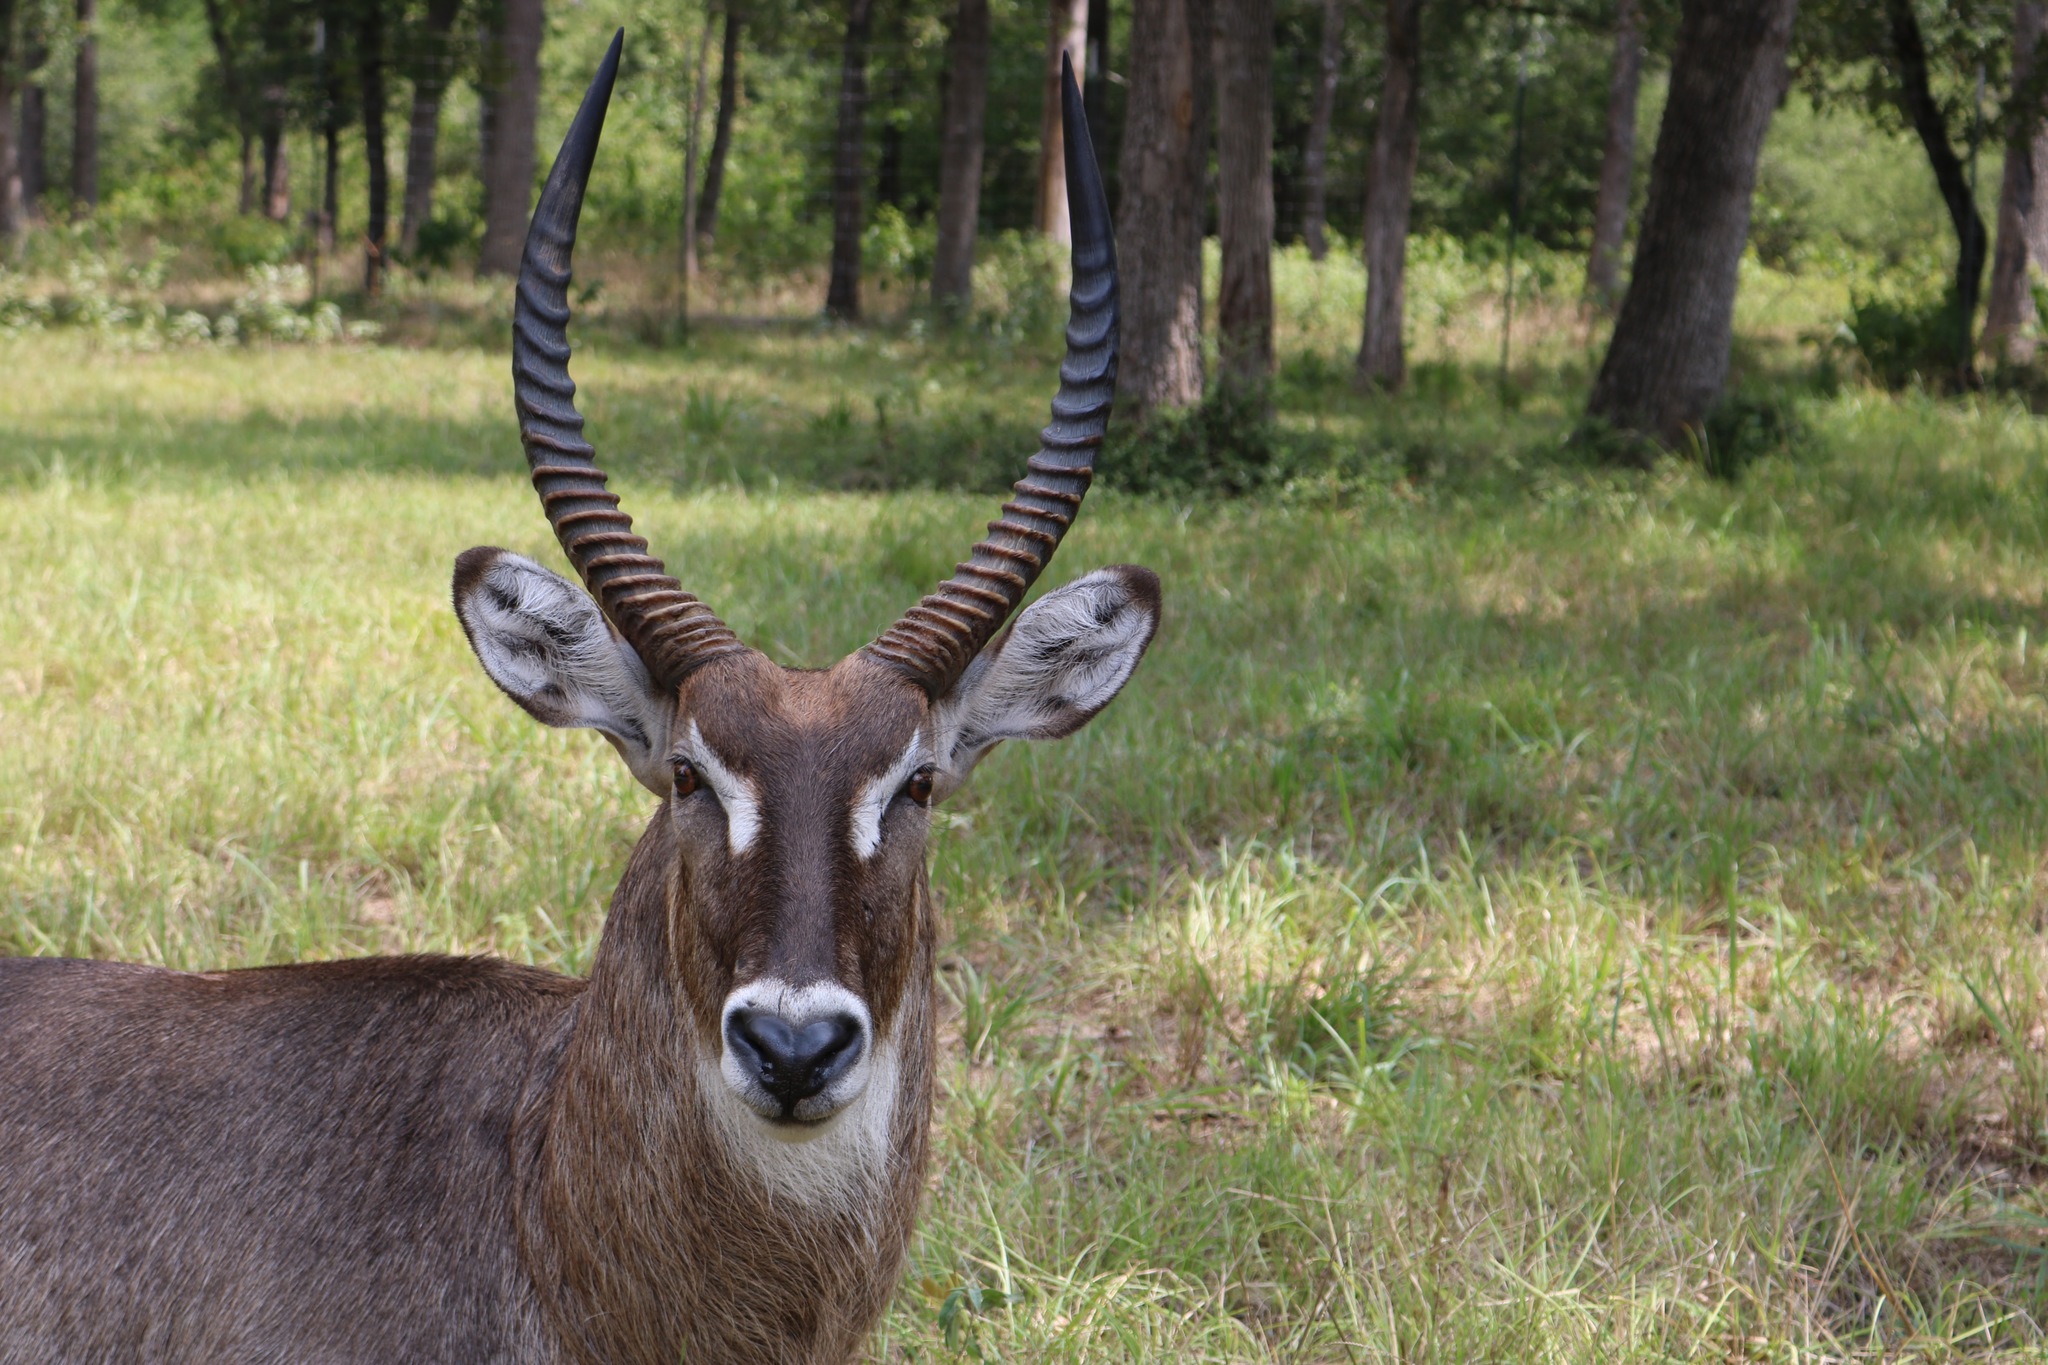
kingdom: Animalia
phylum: Chordata
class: Mammalia
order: Artiodactyla
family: Bovidae
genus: Kobus
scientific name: Kobus ellipsiprymnus
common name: Waterbuck
